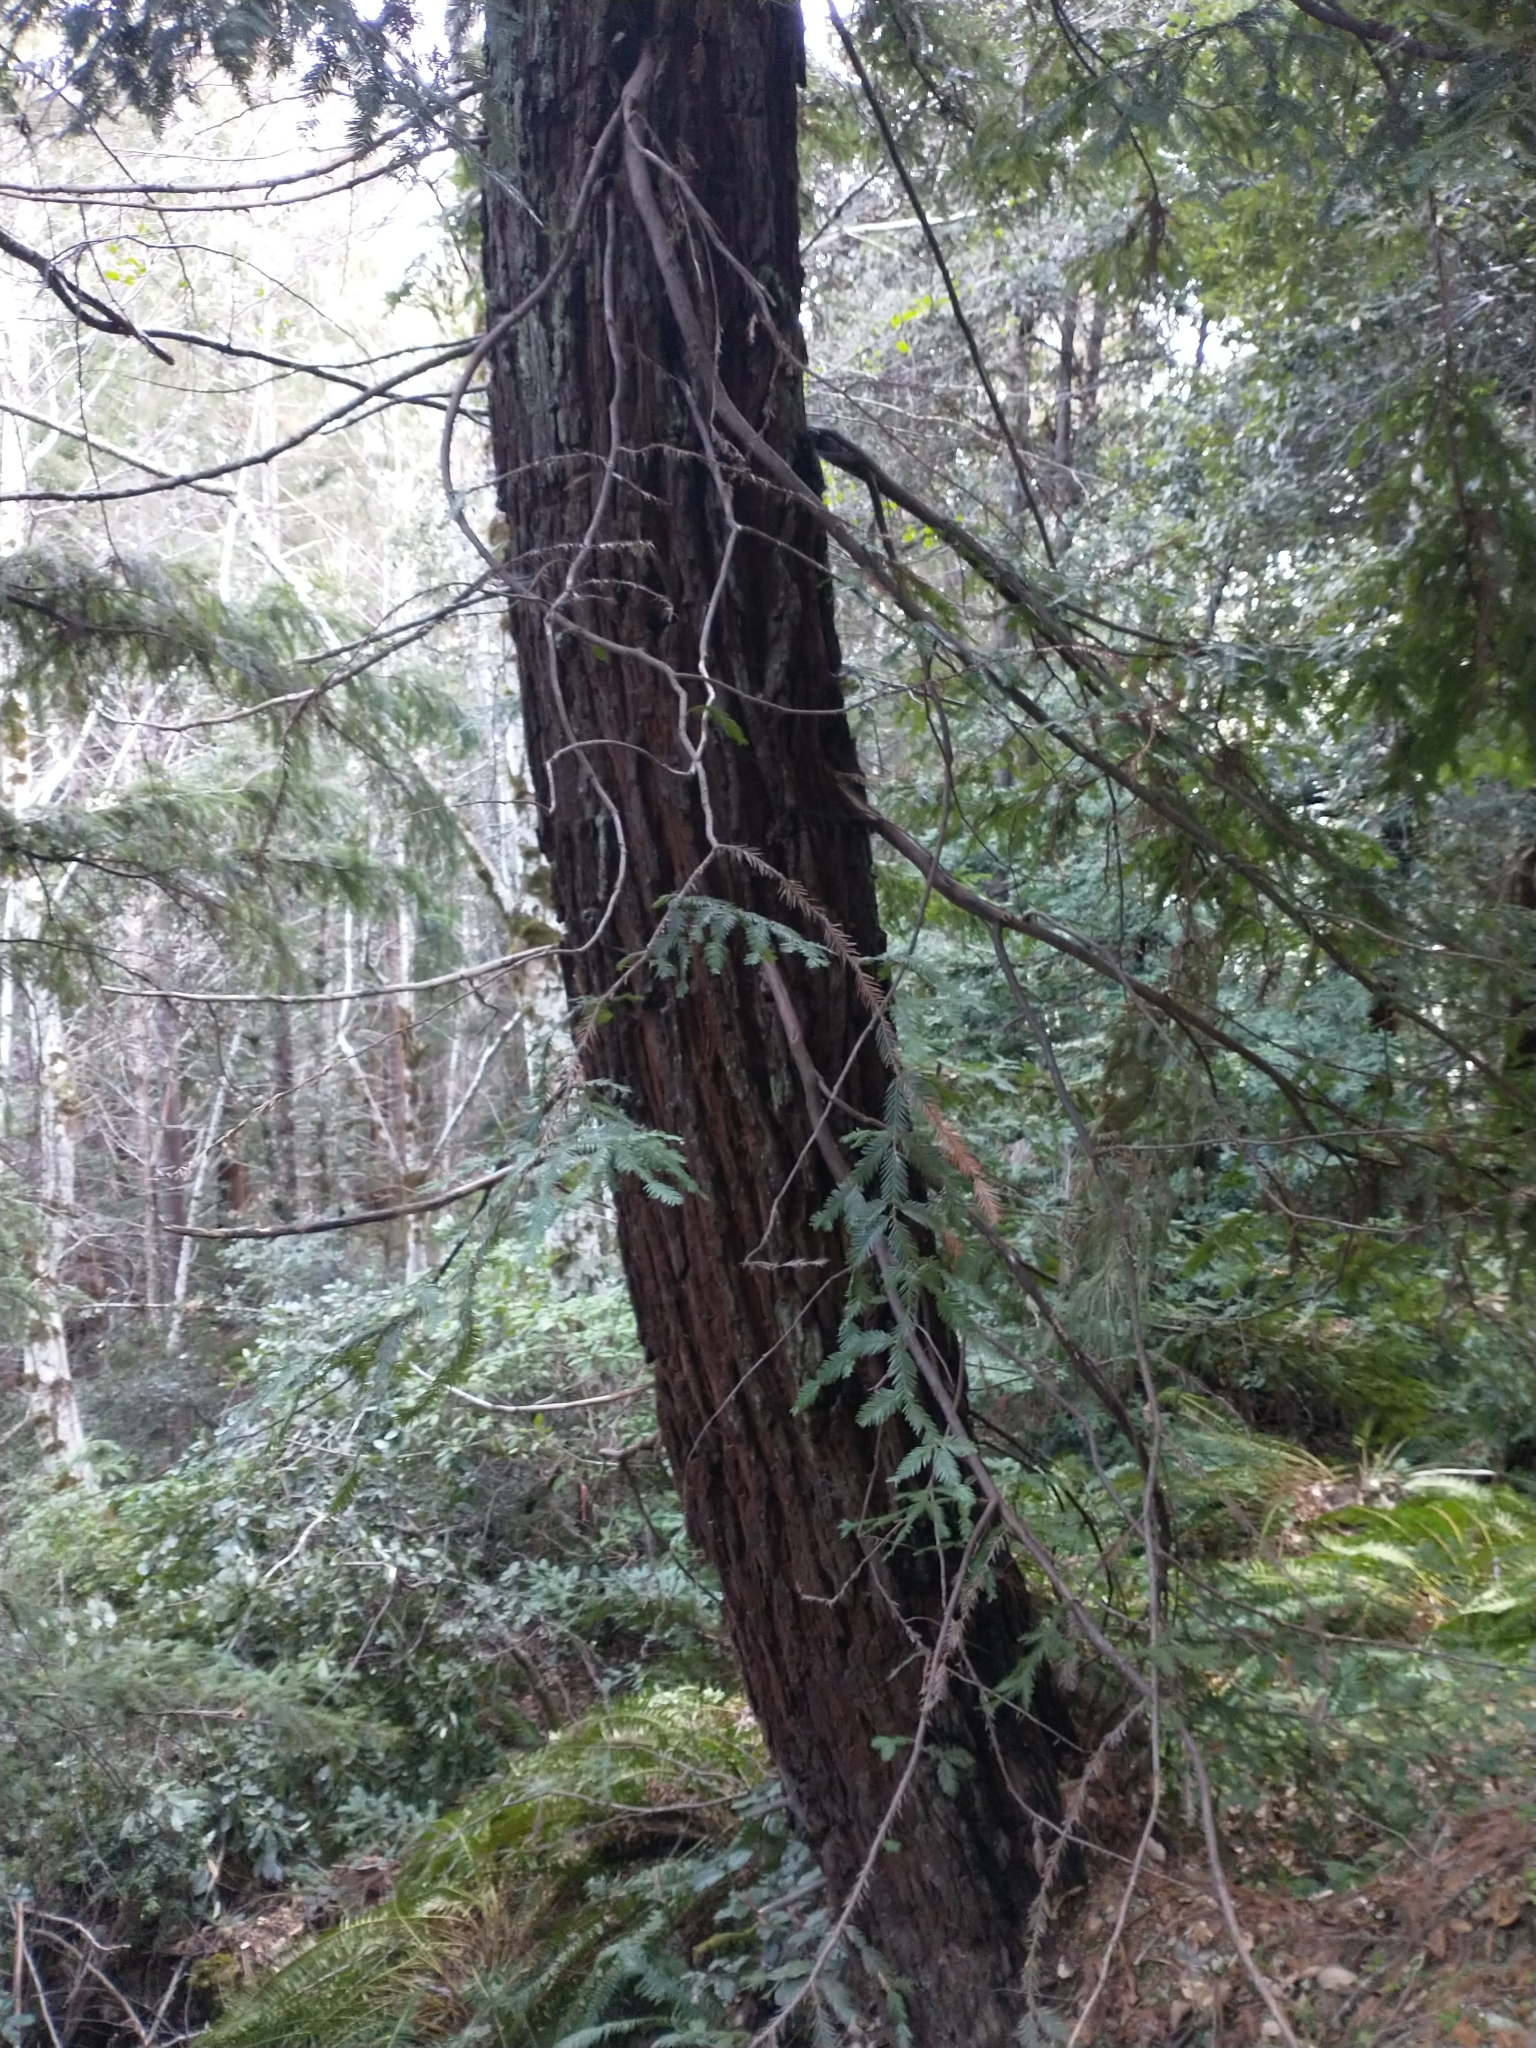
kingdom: Plantae
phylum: Tracheophyta
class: Pinopsida
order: Pinales
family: Cupressaceae
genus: Sequoia
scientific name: Sequoia sempervirens
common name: Coast redwood
